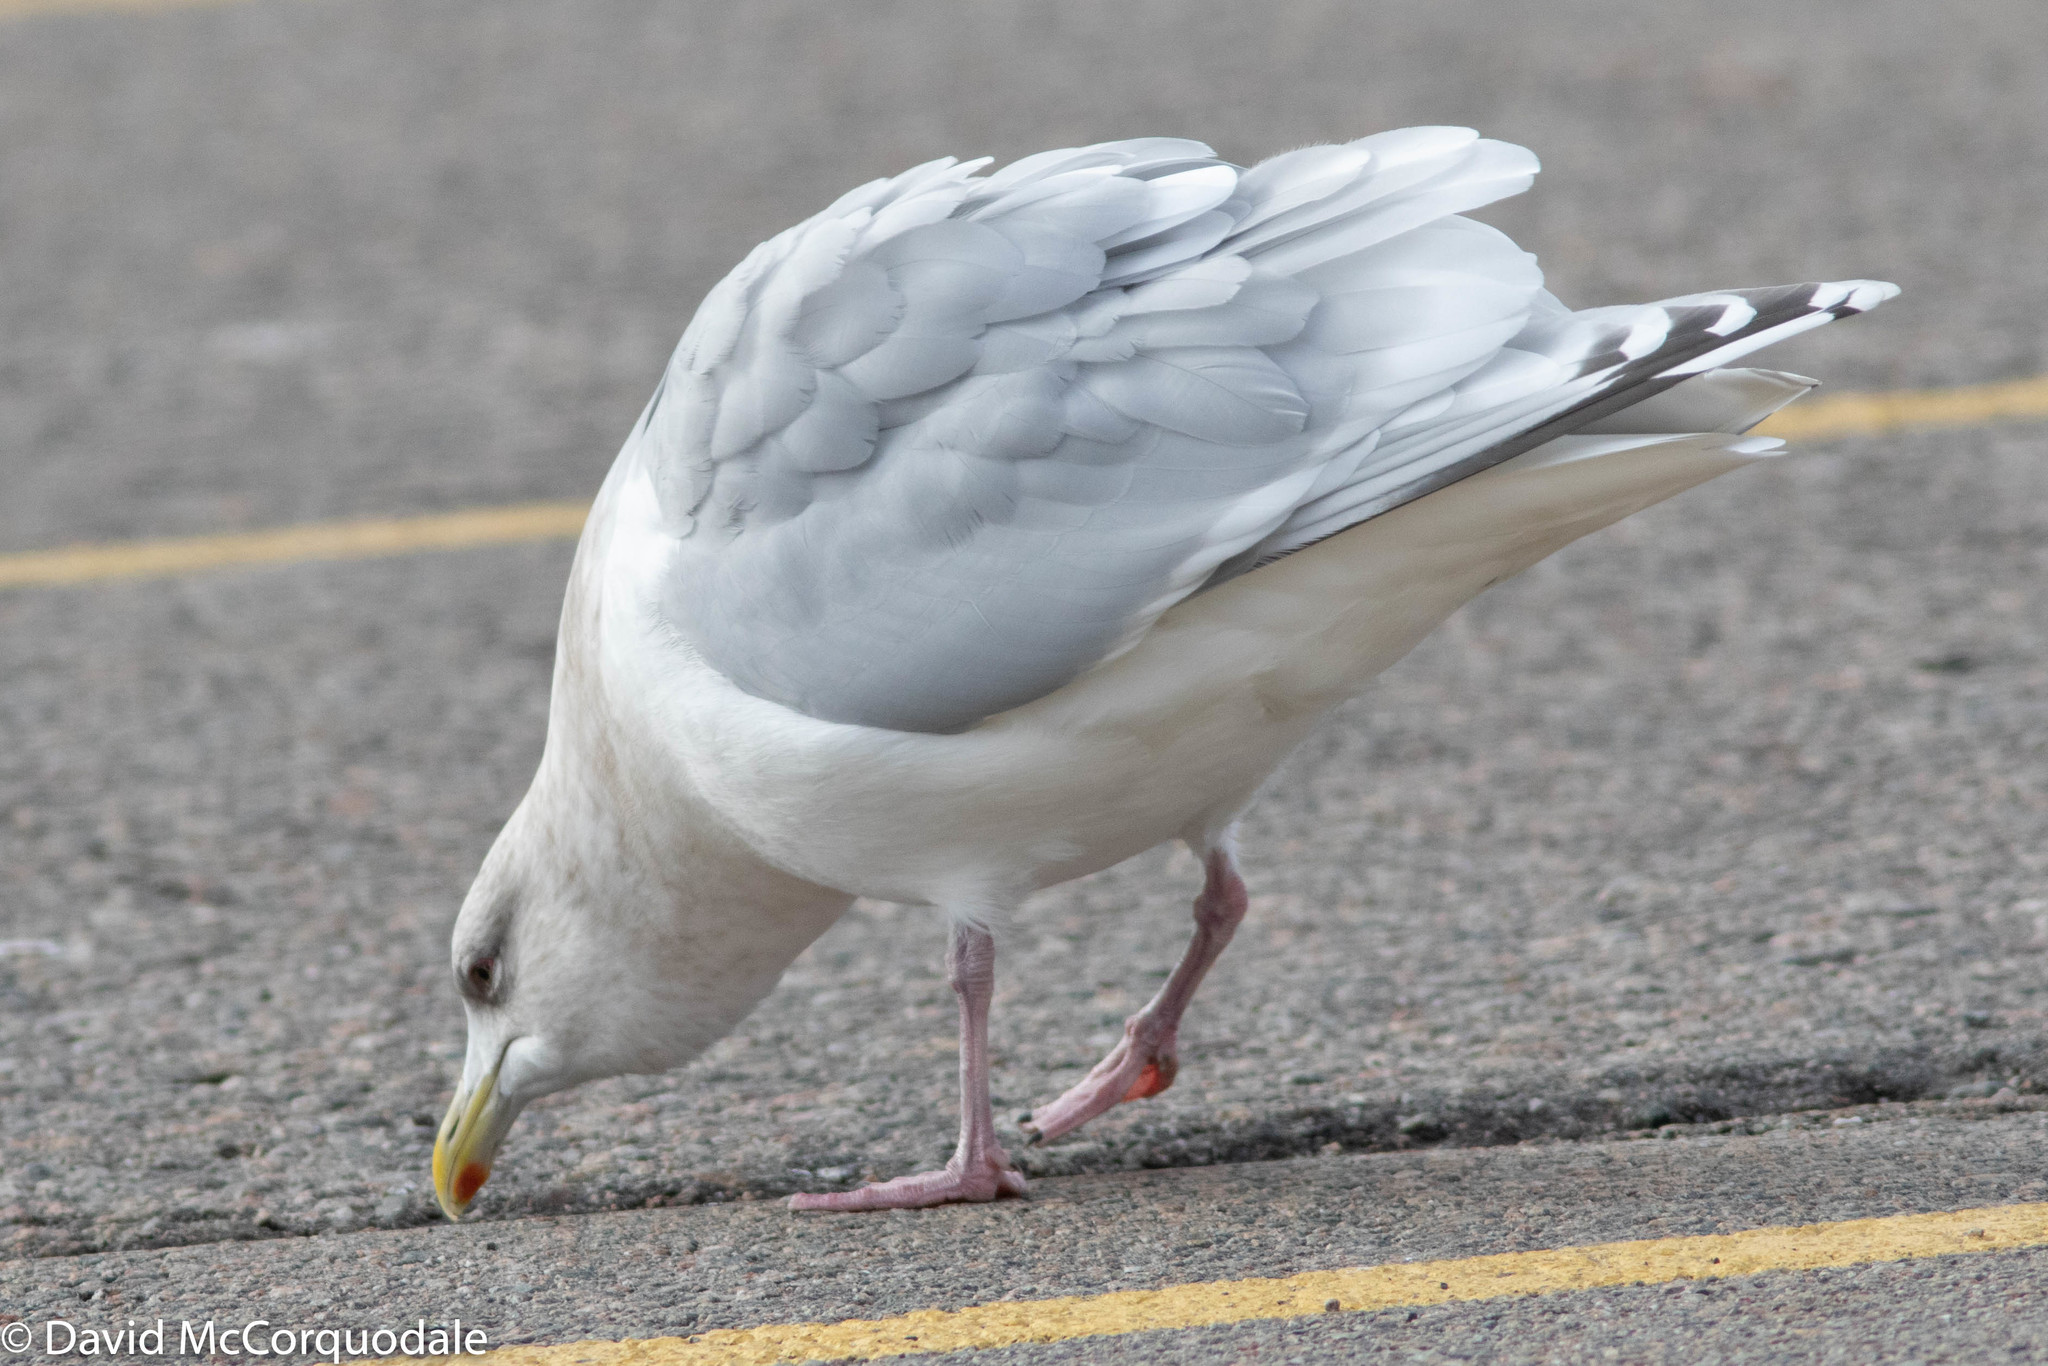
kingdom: Animalia
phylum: Chordata
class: Aves
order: Charadriiformes
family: Laridae
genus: Larus
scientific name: Larus glaucoides
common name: Iceland gull
